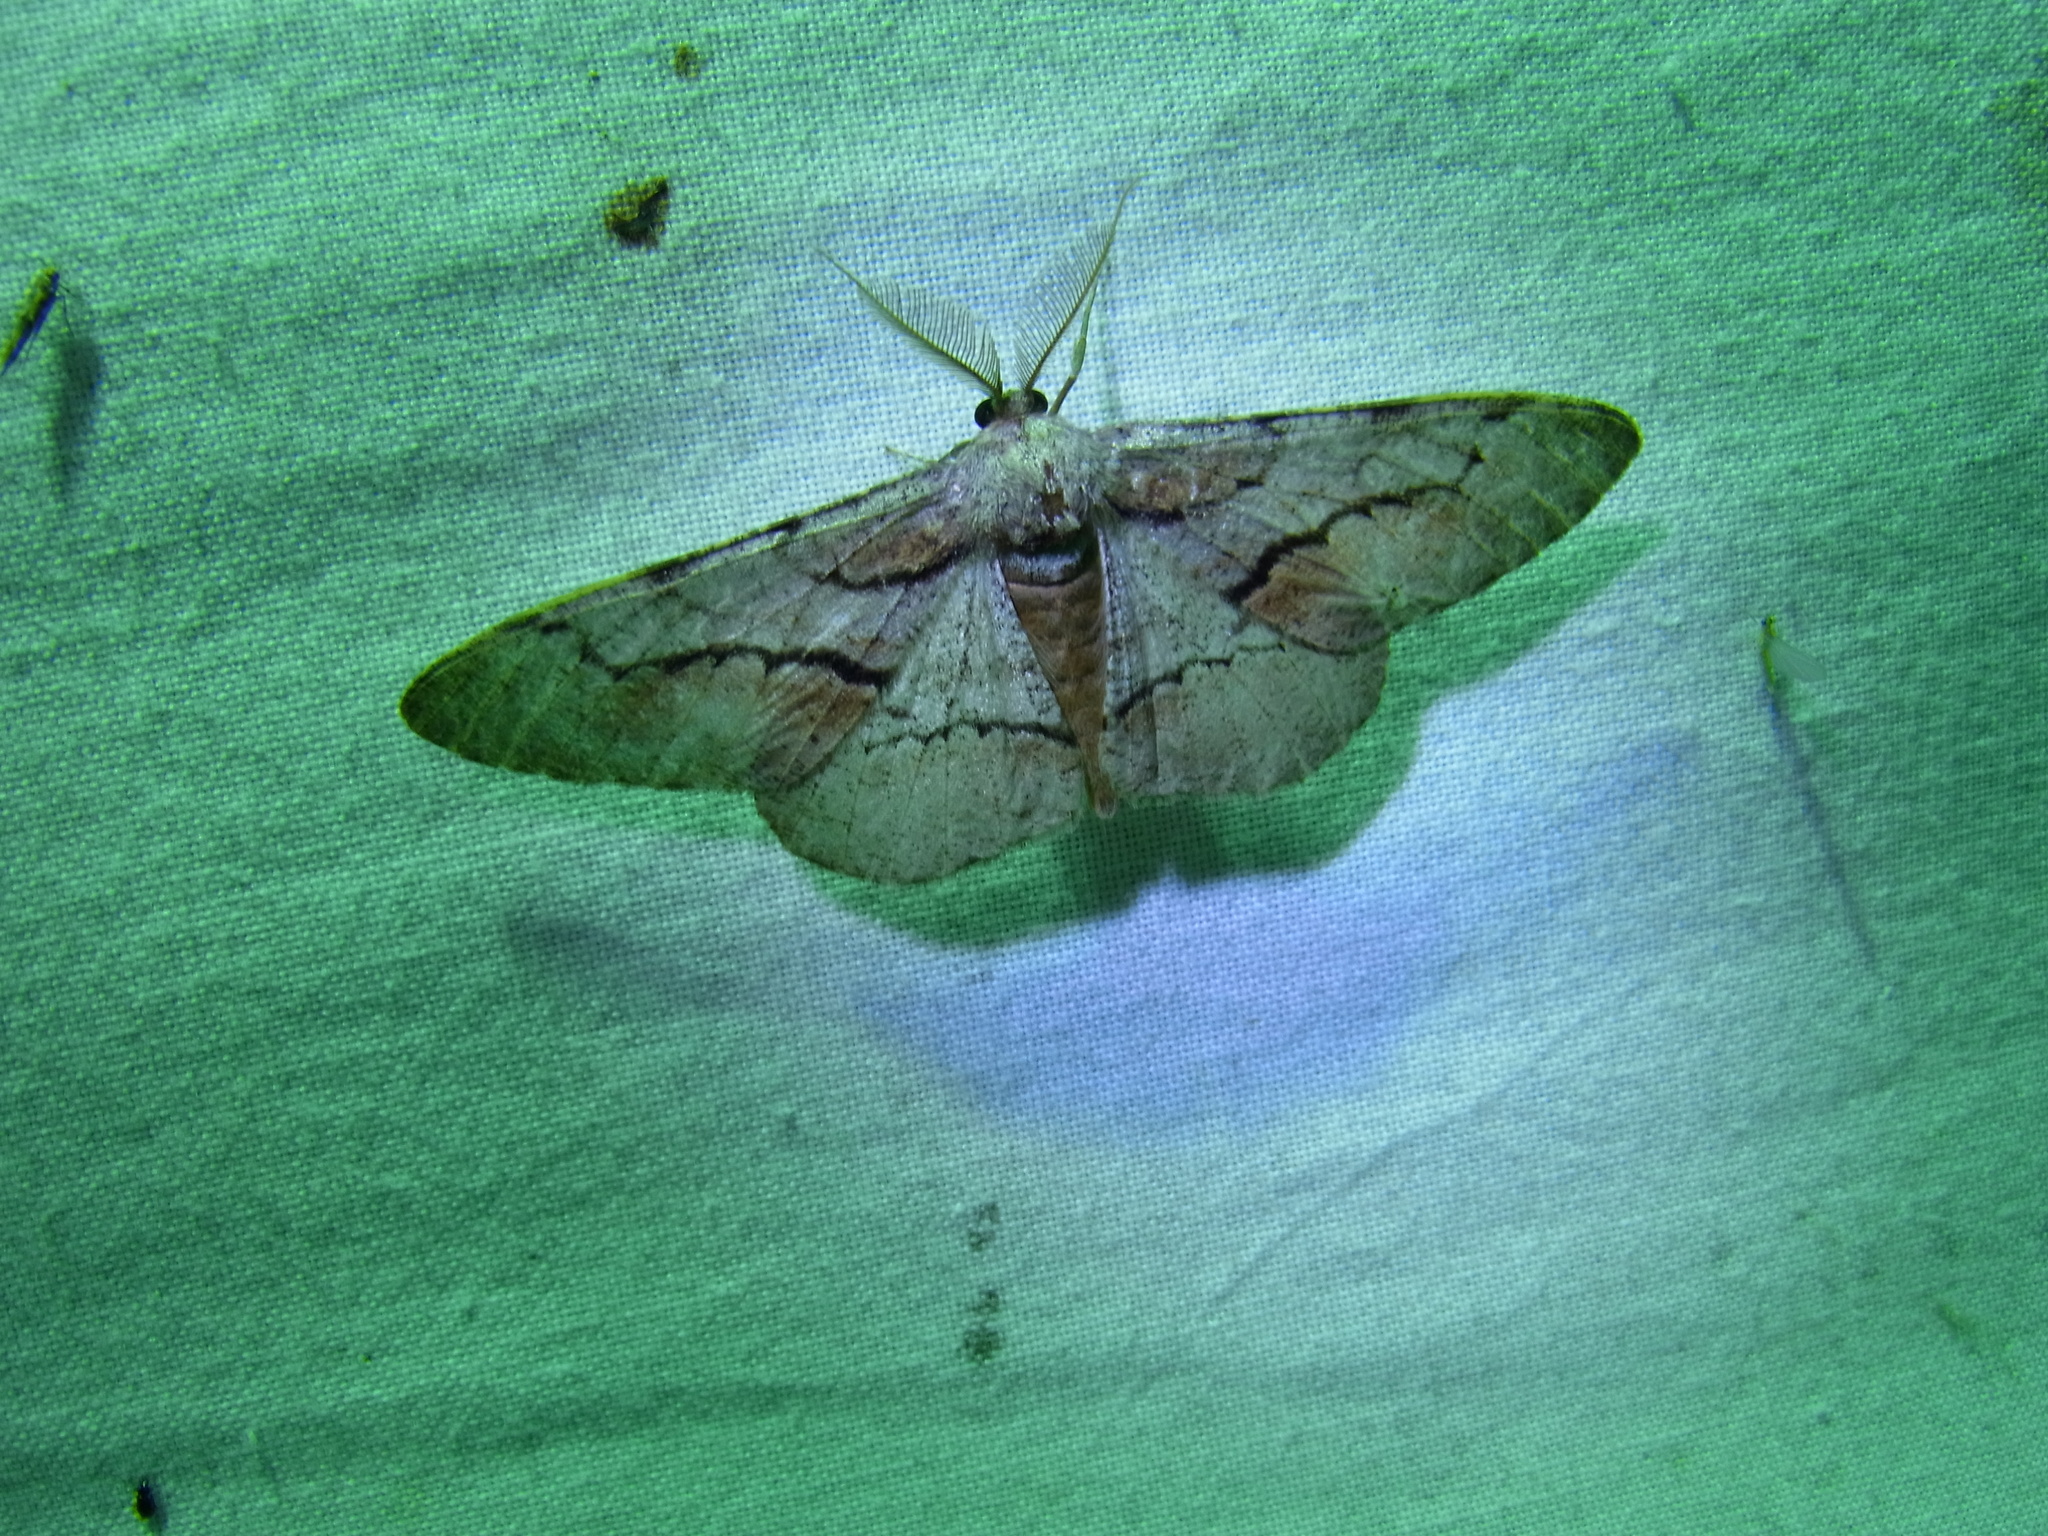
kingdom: Animalia
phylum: Arthropoda
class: Insecta
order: Lepidoptera
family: Geometridae
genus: Phthonosema
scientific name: Phthonosema tendinosaria
